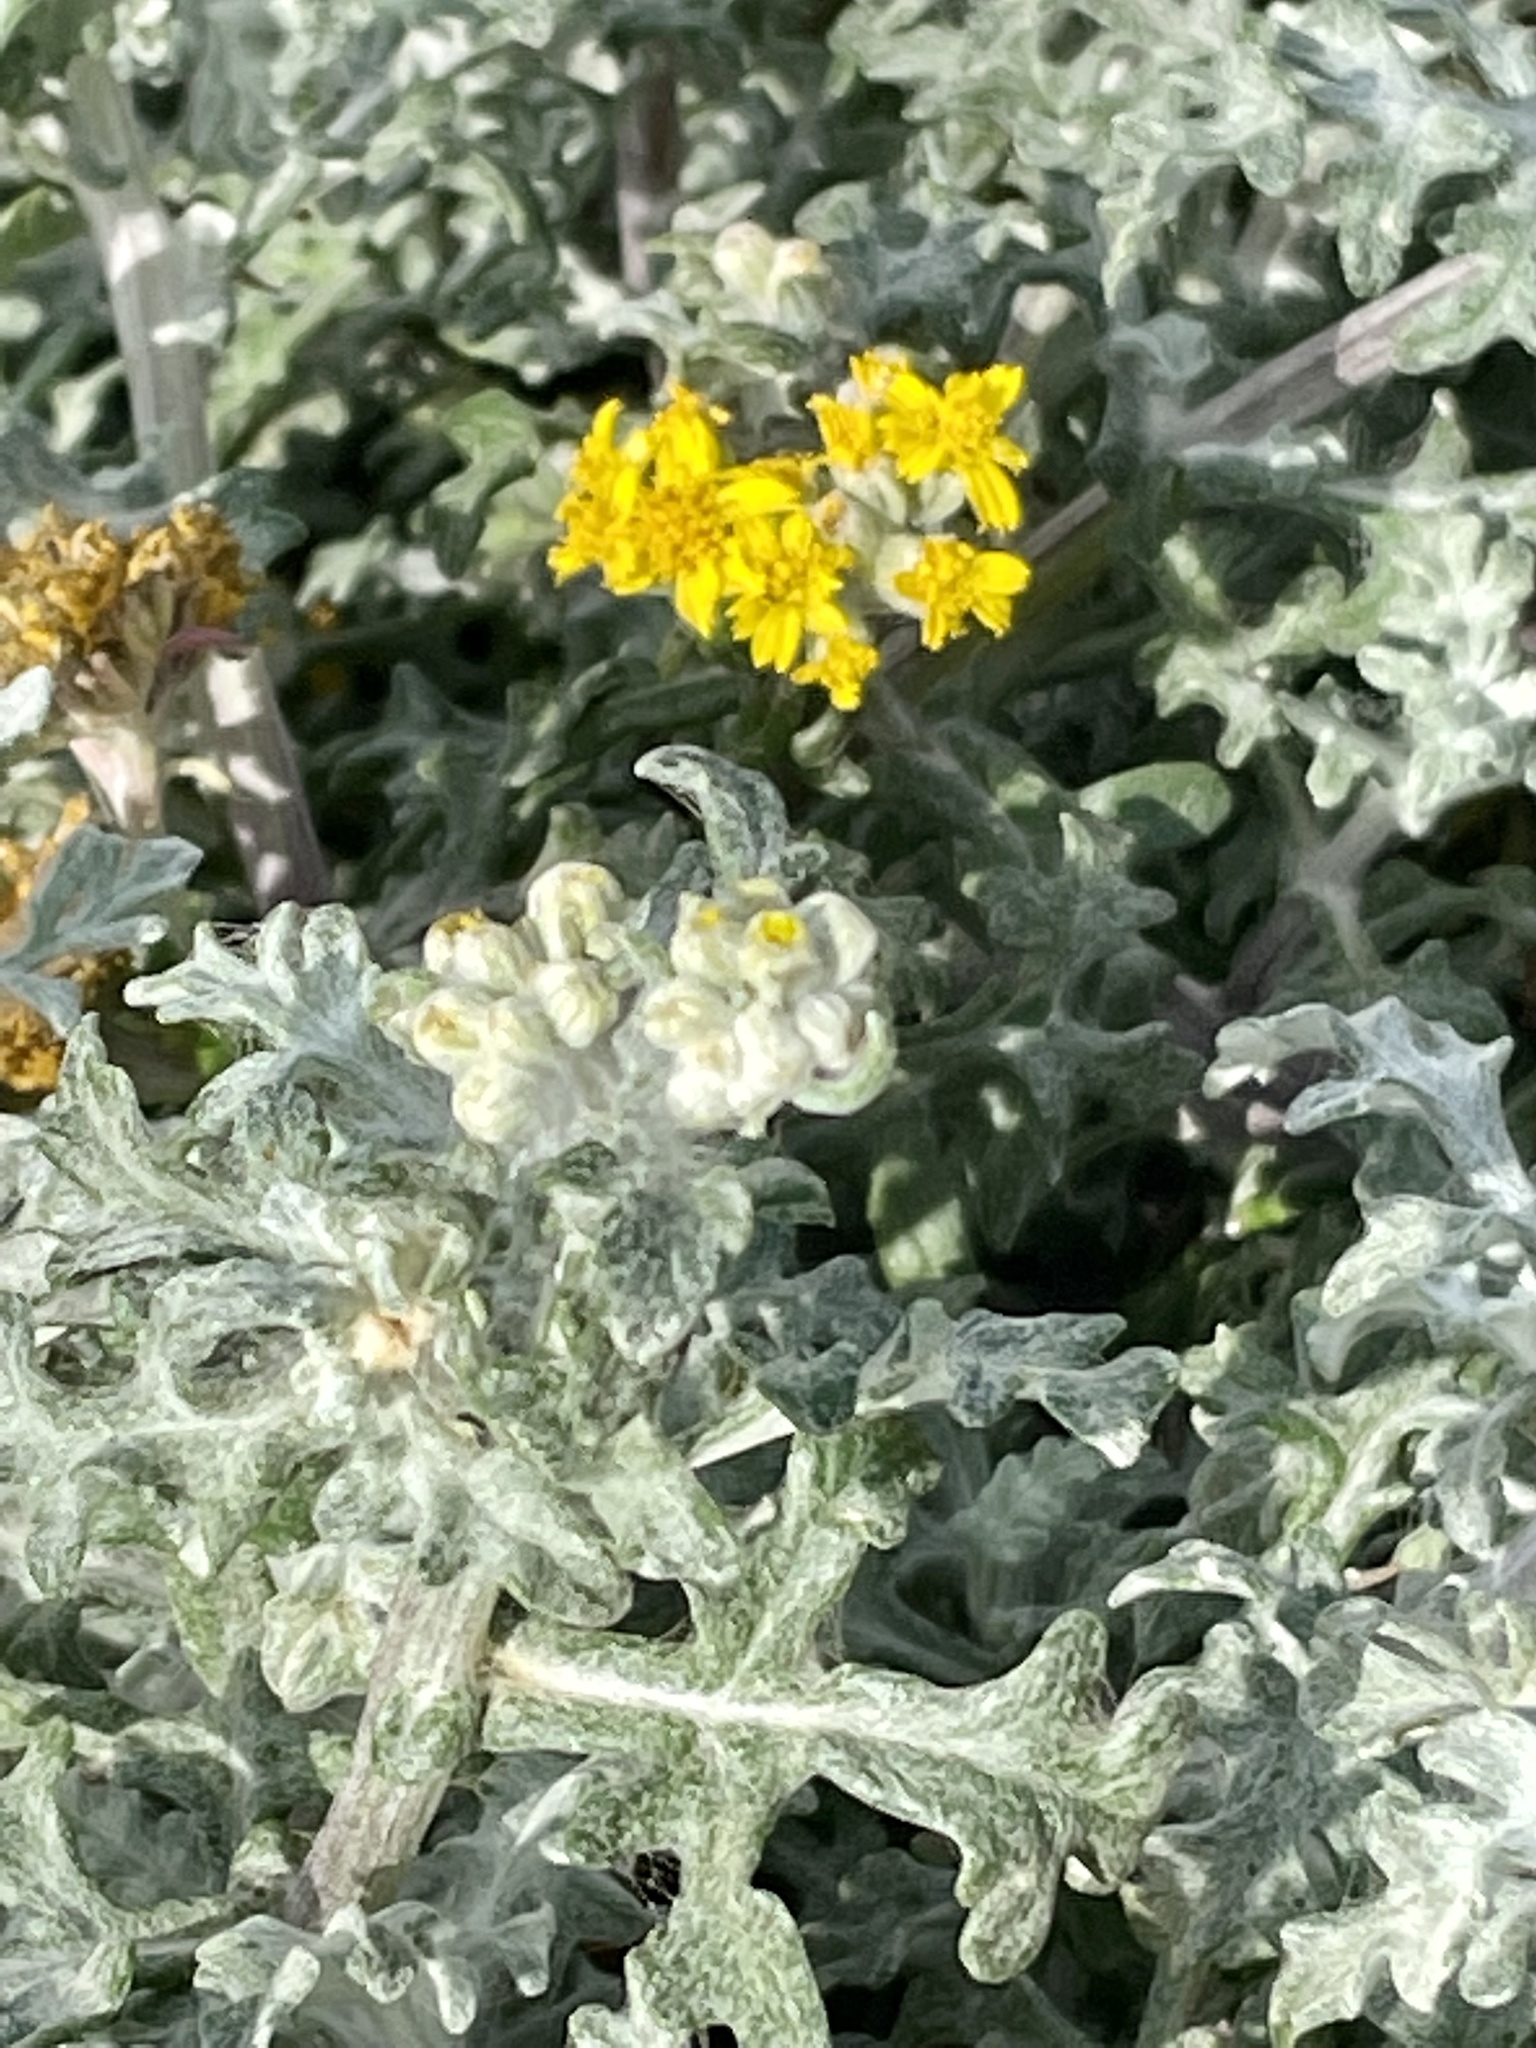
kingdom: Plantae
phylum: Tracheophyta
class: Magnoliopsida
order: Asterales
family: Asteraceae
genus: Eriophyllum
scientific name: Eriophyllum staechadifolium
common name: Lizardtail
